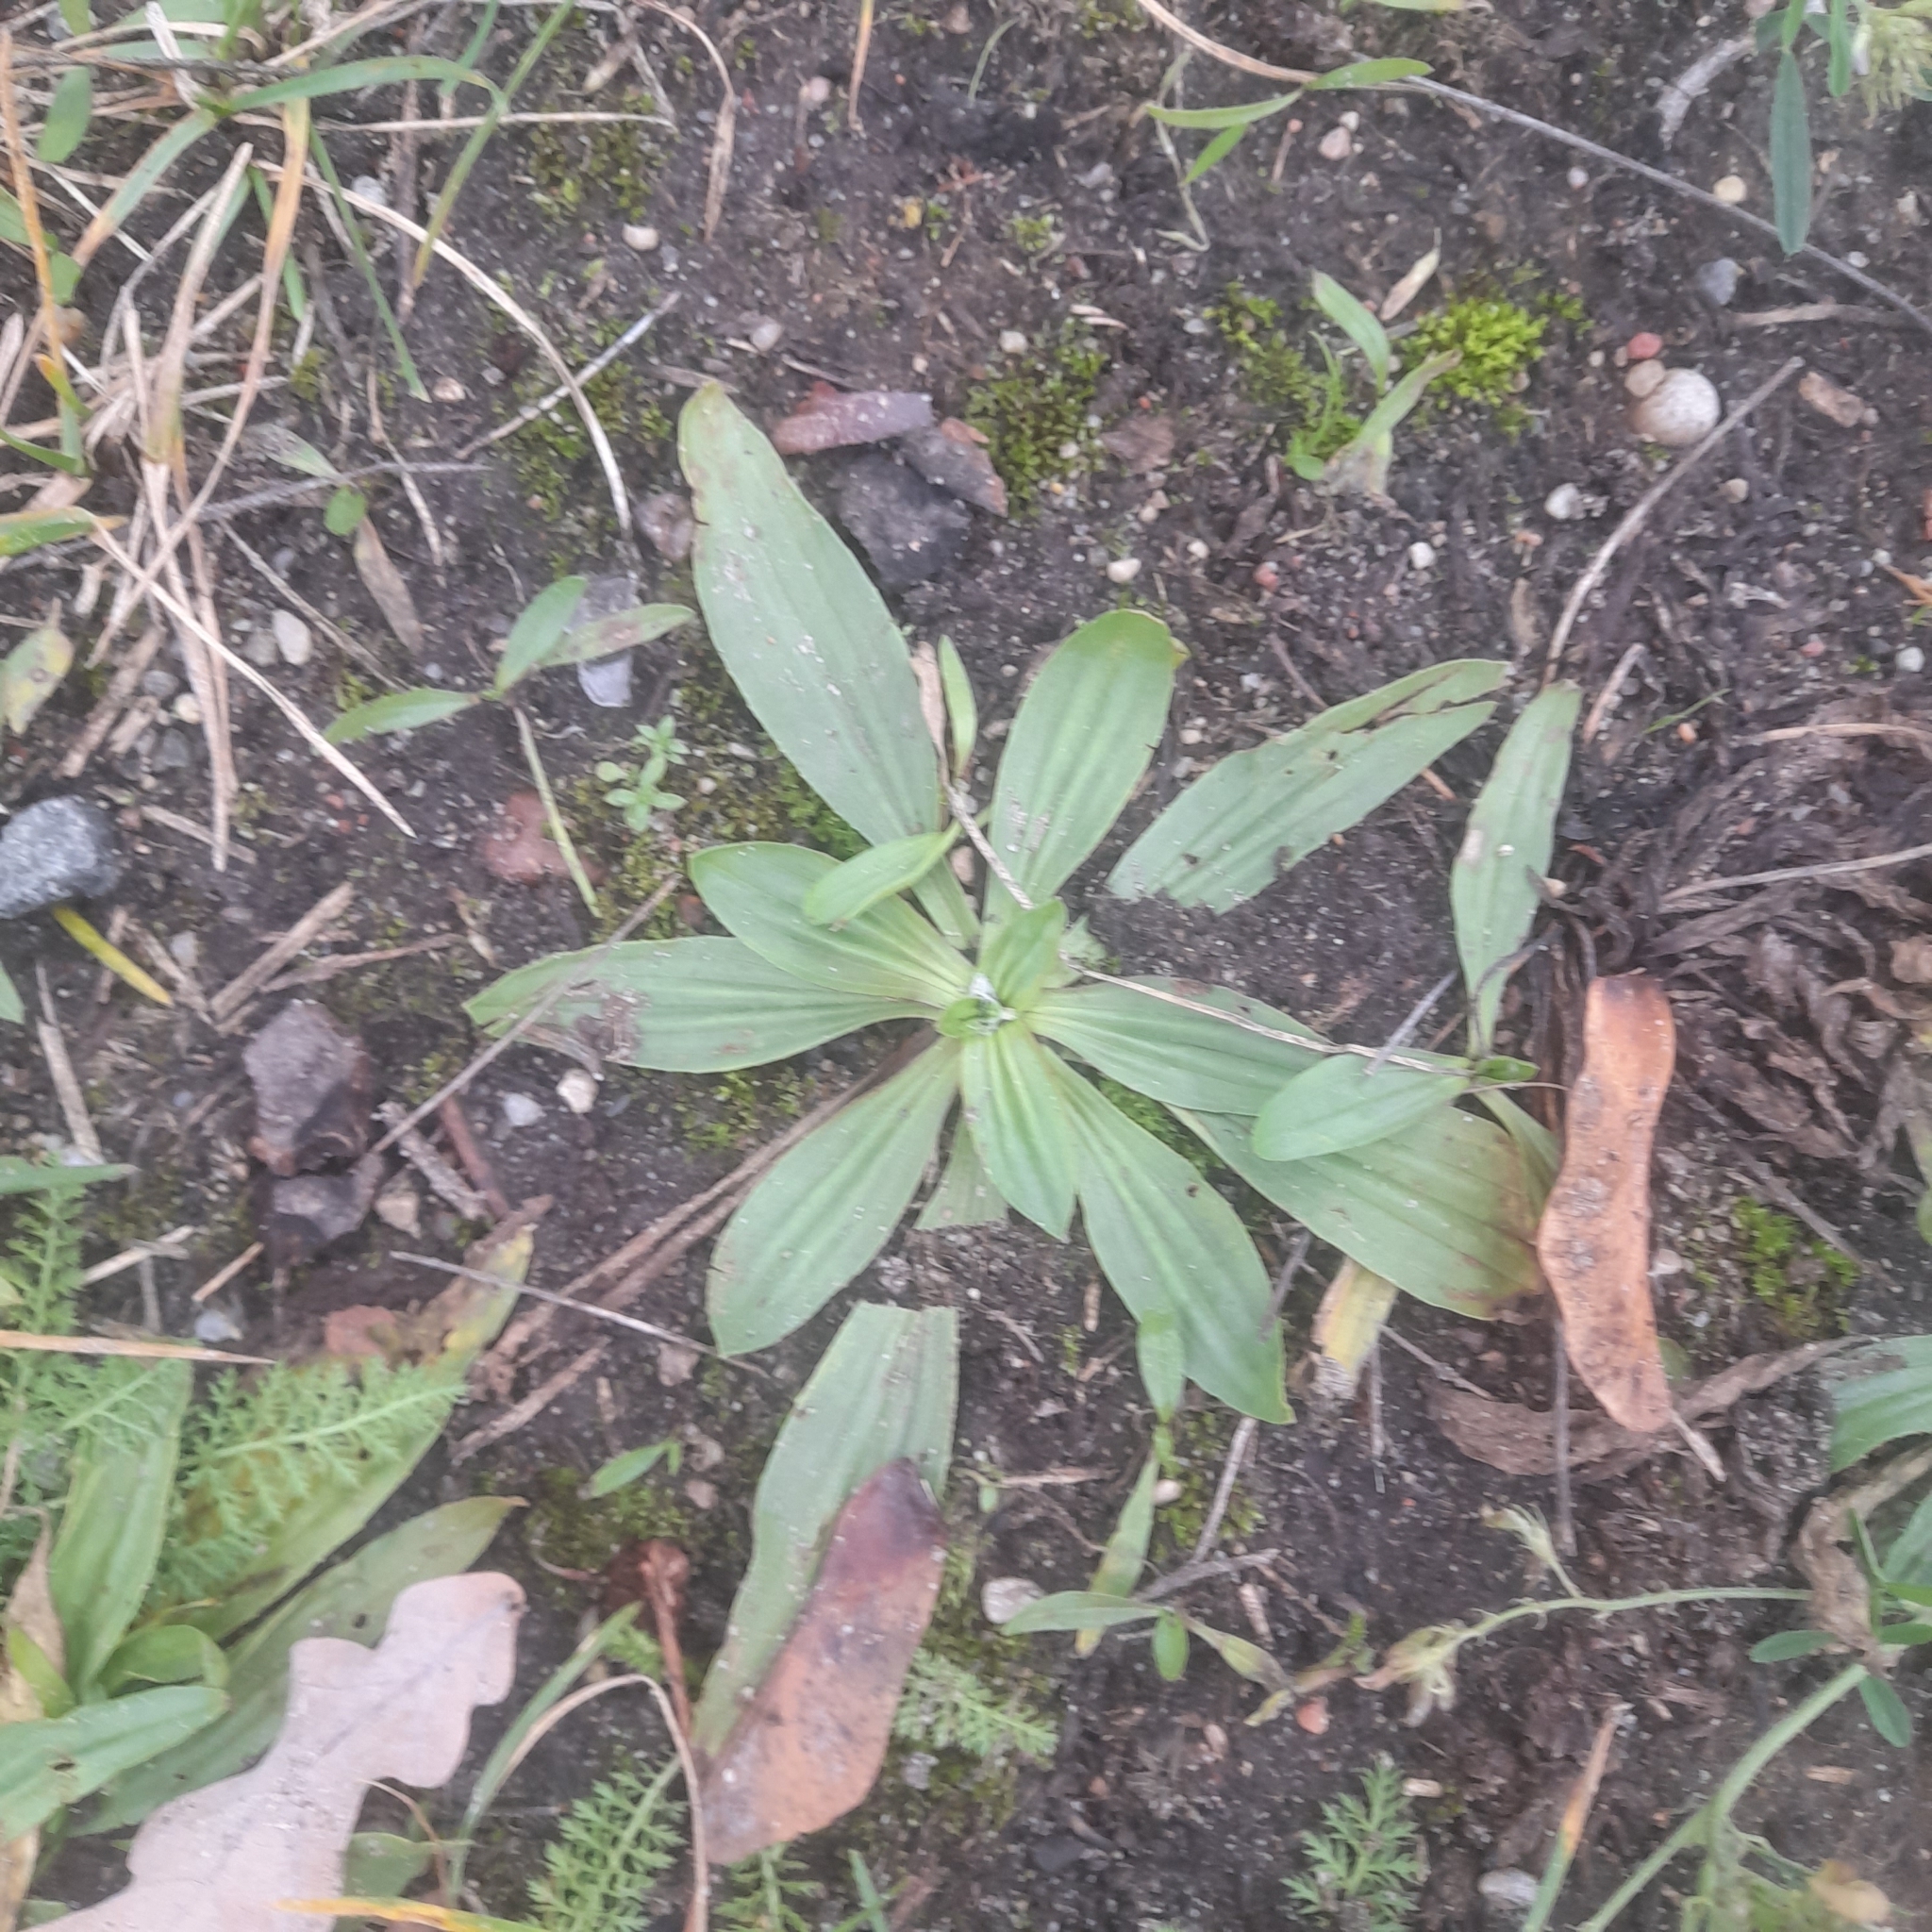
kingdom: Plantae
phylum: Tracheophyta
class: Magnoliopsida
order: Lamiales
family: Plantaginaceae
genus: Plantago
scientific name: Plantago lanceolata
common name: Ribwort plantain
